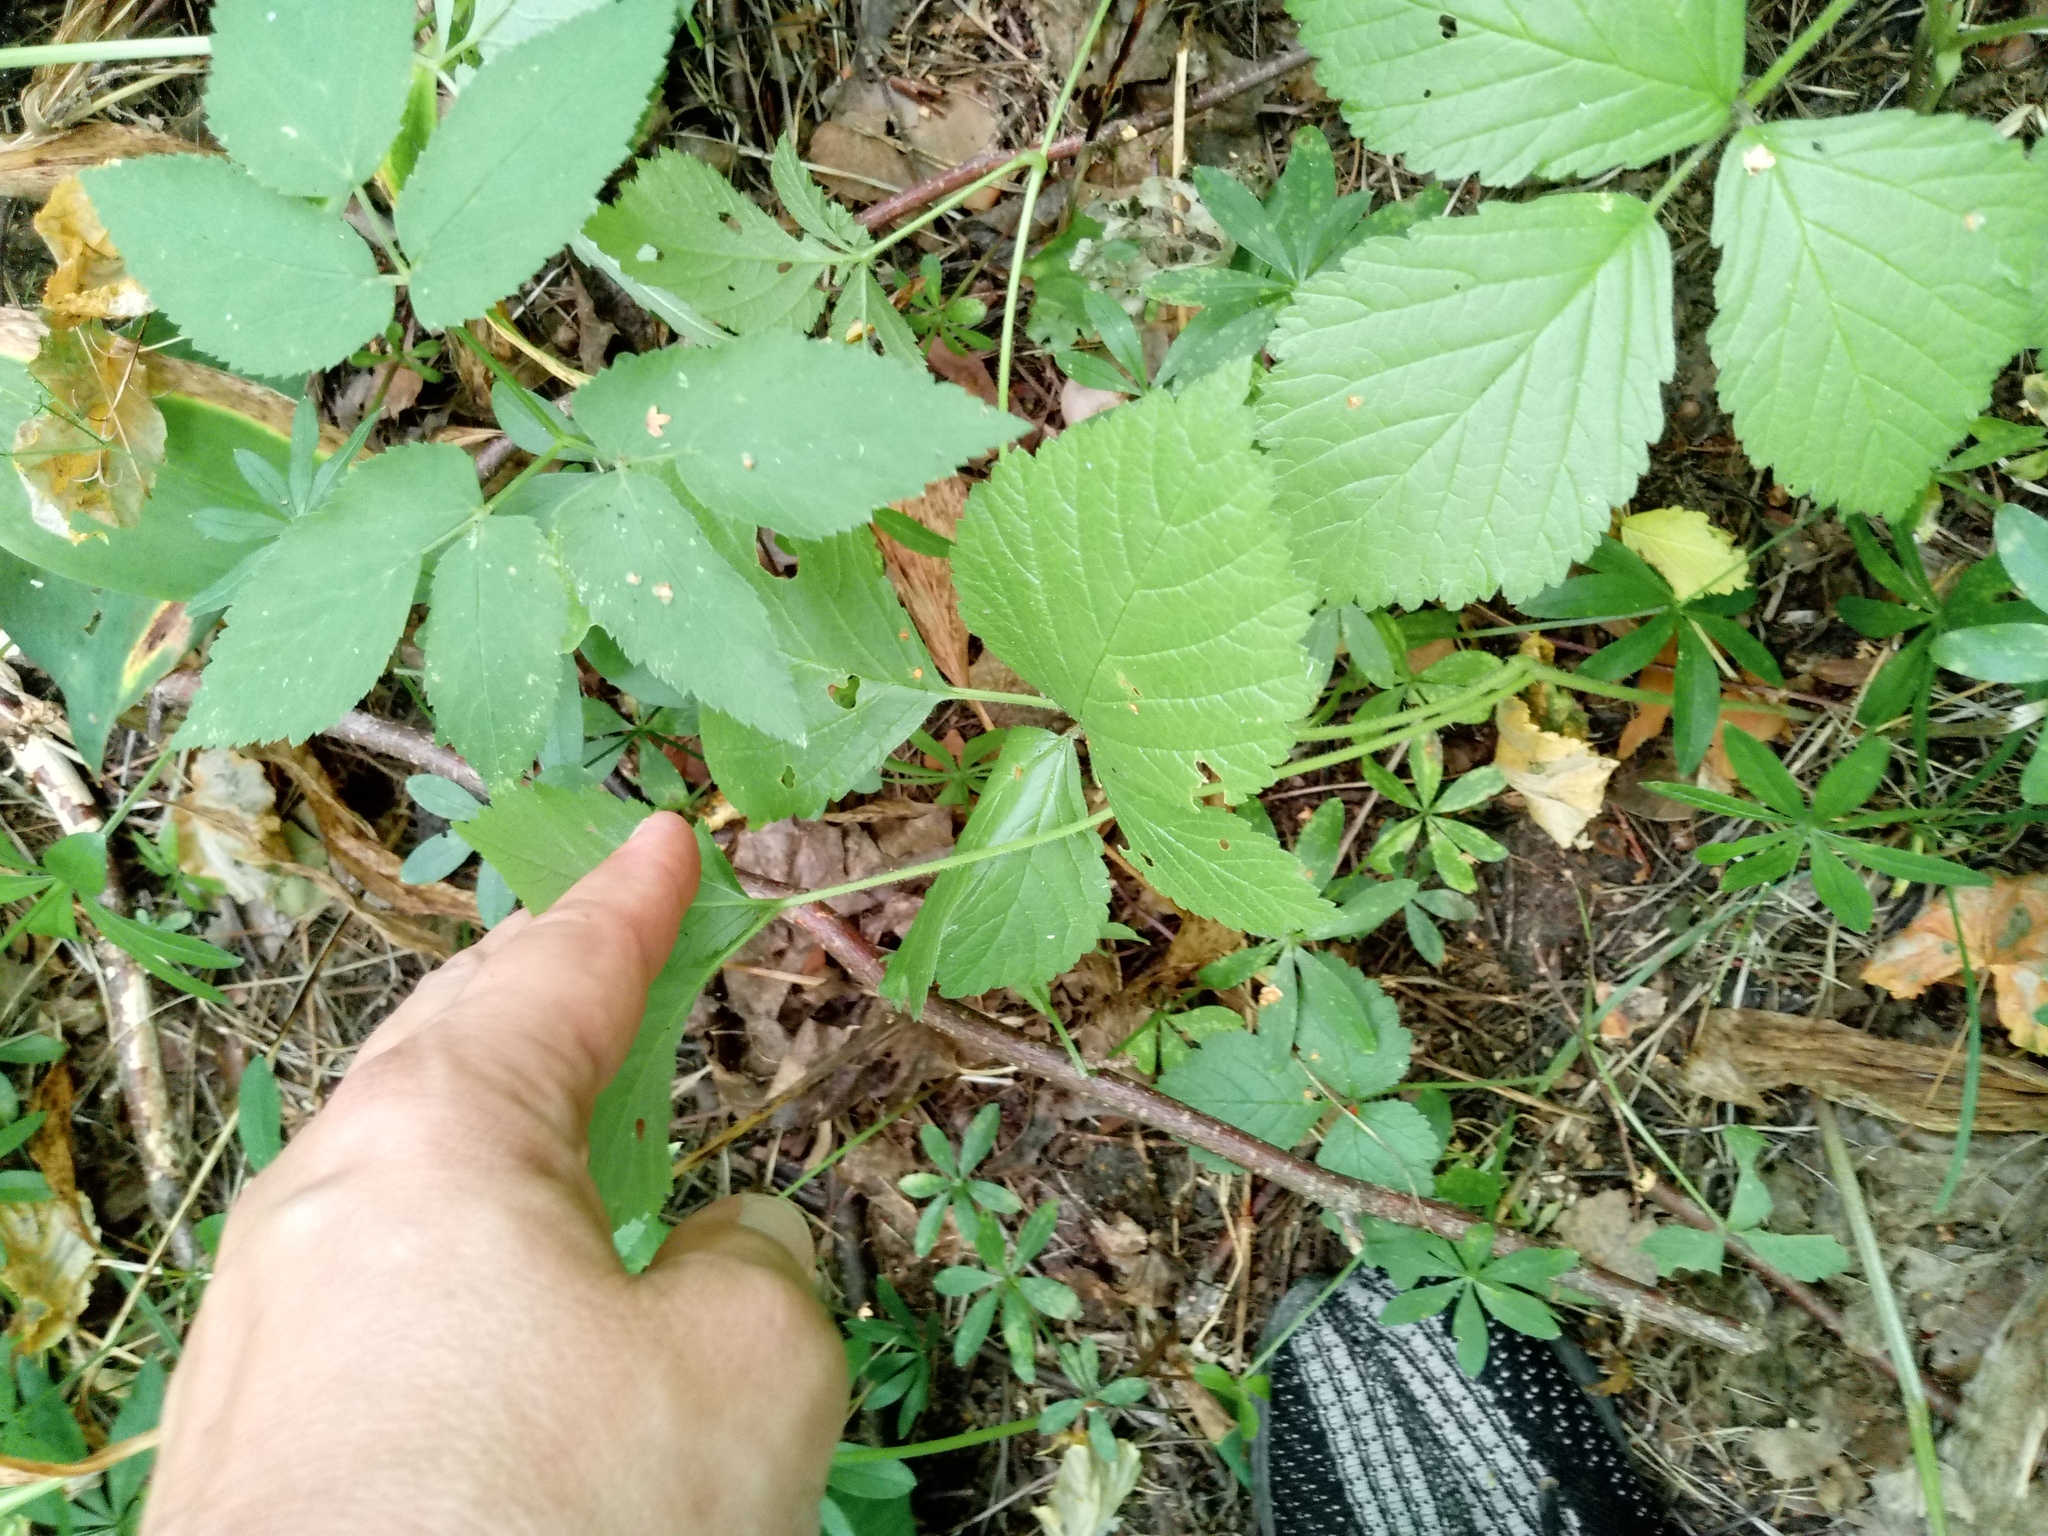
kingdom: Plantae
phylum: Tracheophyta
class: Magnoliopsida
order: Rosales
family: Rosaceae
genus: Rubus
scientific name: Rubus saxatilis
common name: Stone bramble
